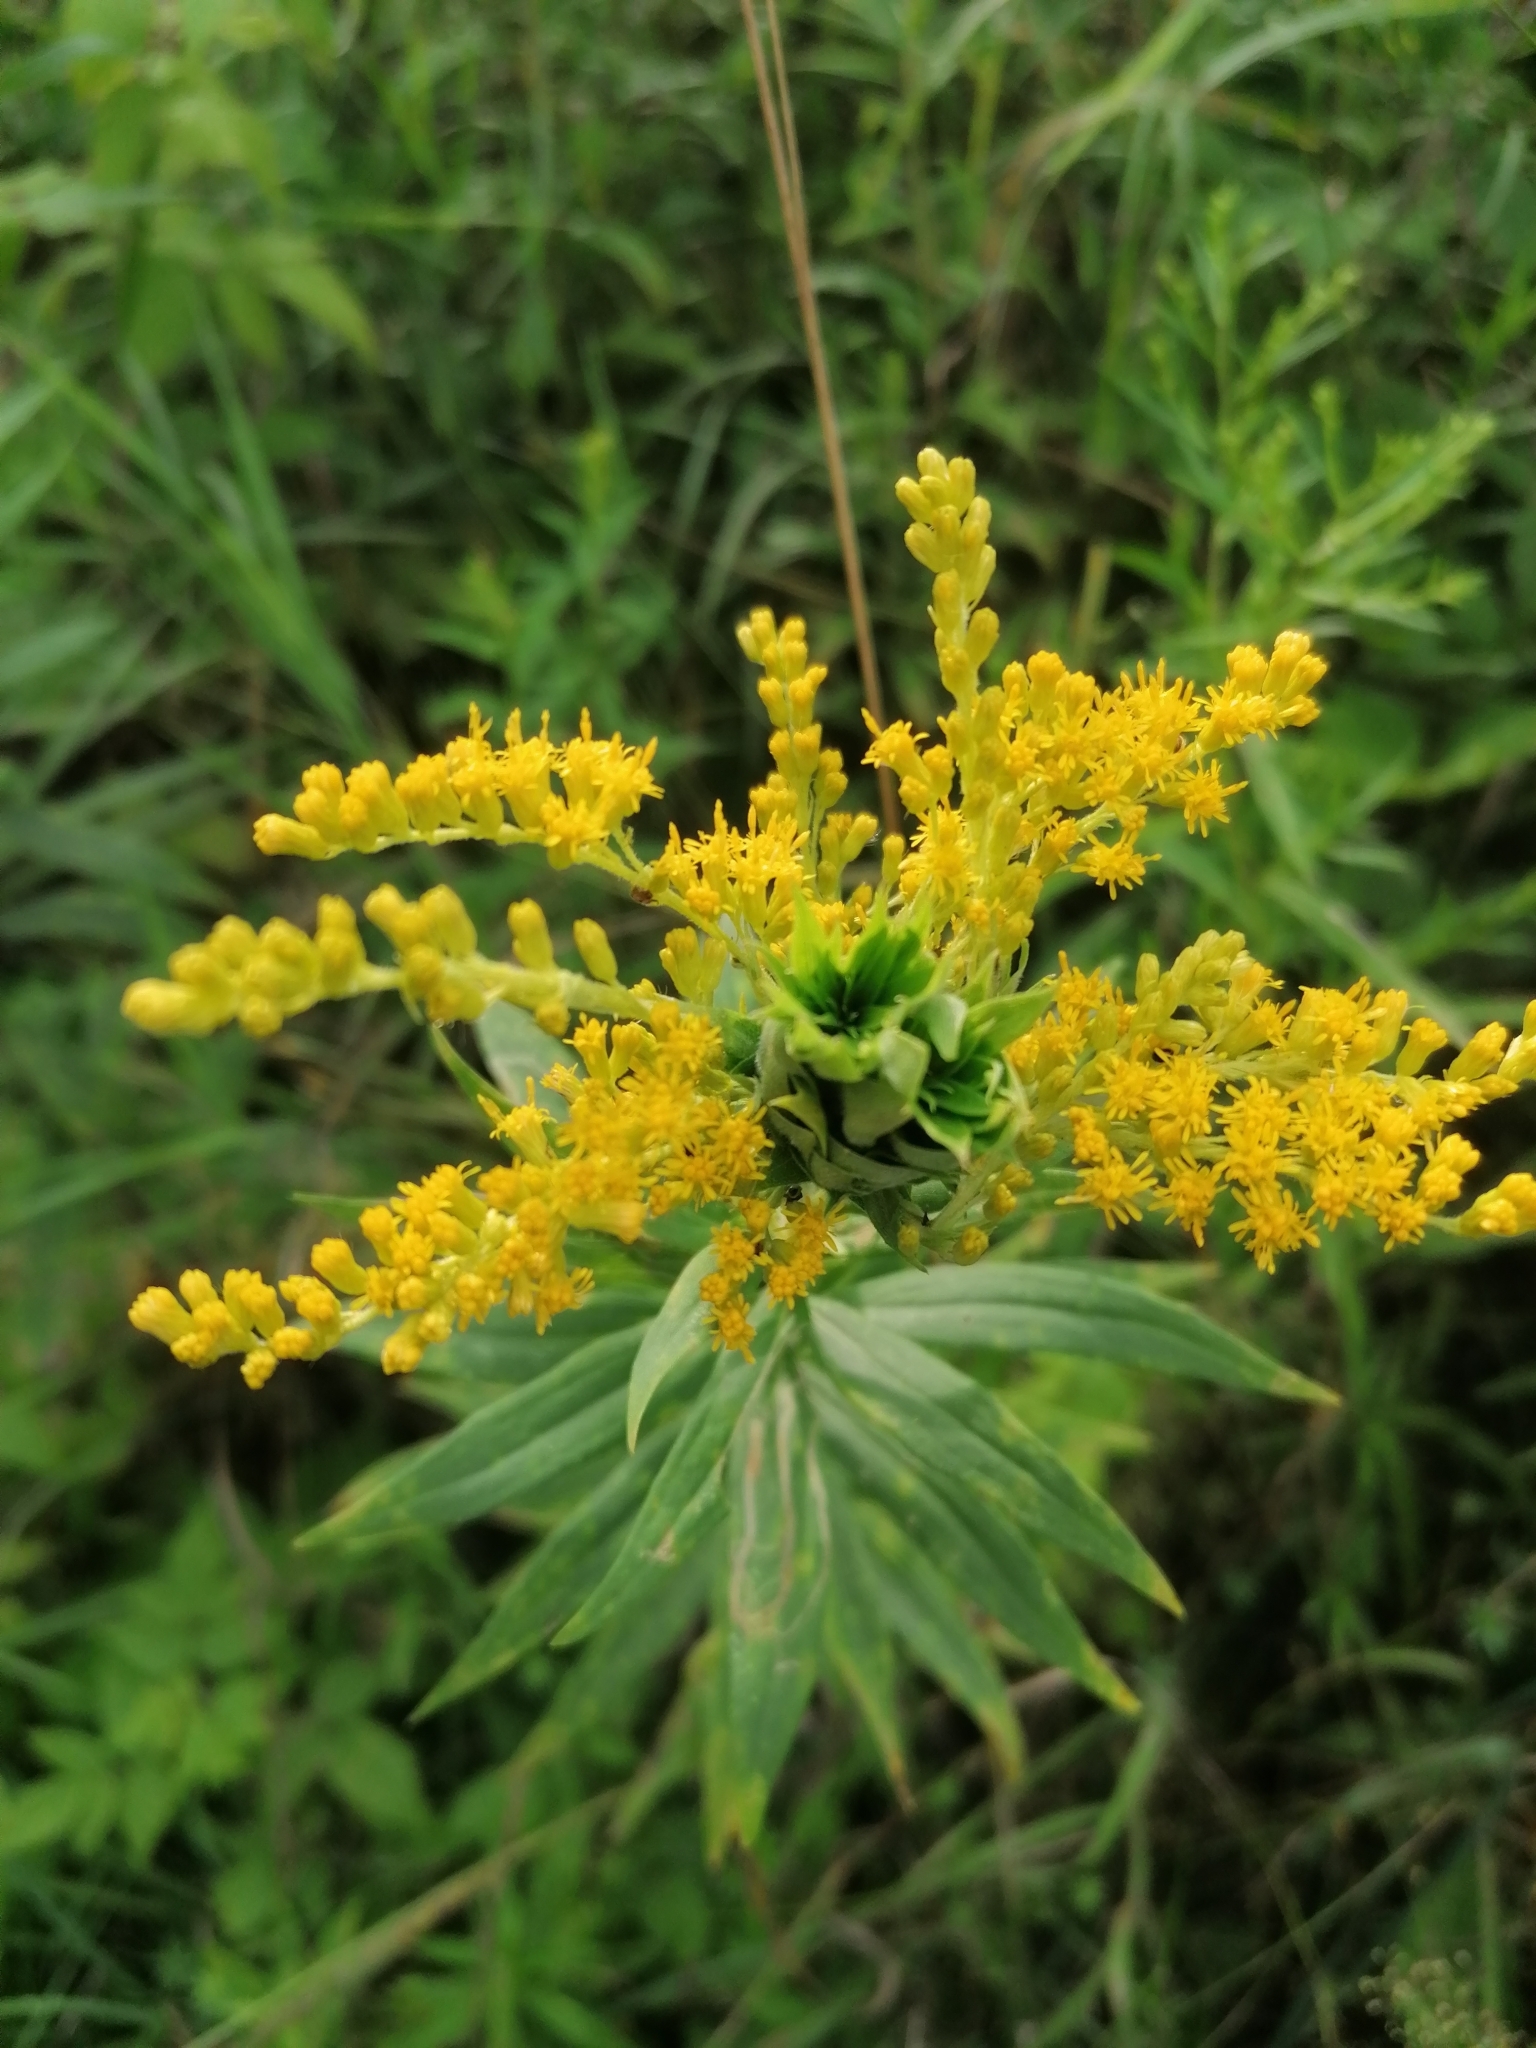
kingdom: Animalia
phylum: Arthropoda
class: Insecta
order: Diptera
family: Cecidomyiidae
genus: Rhopalomyia
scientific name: Rhopalomyia solidaginis
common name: Goldenrod bunch gall midge
